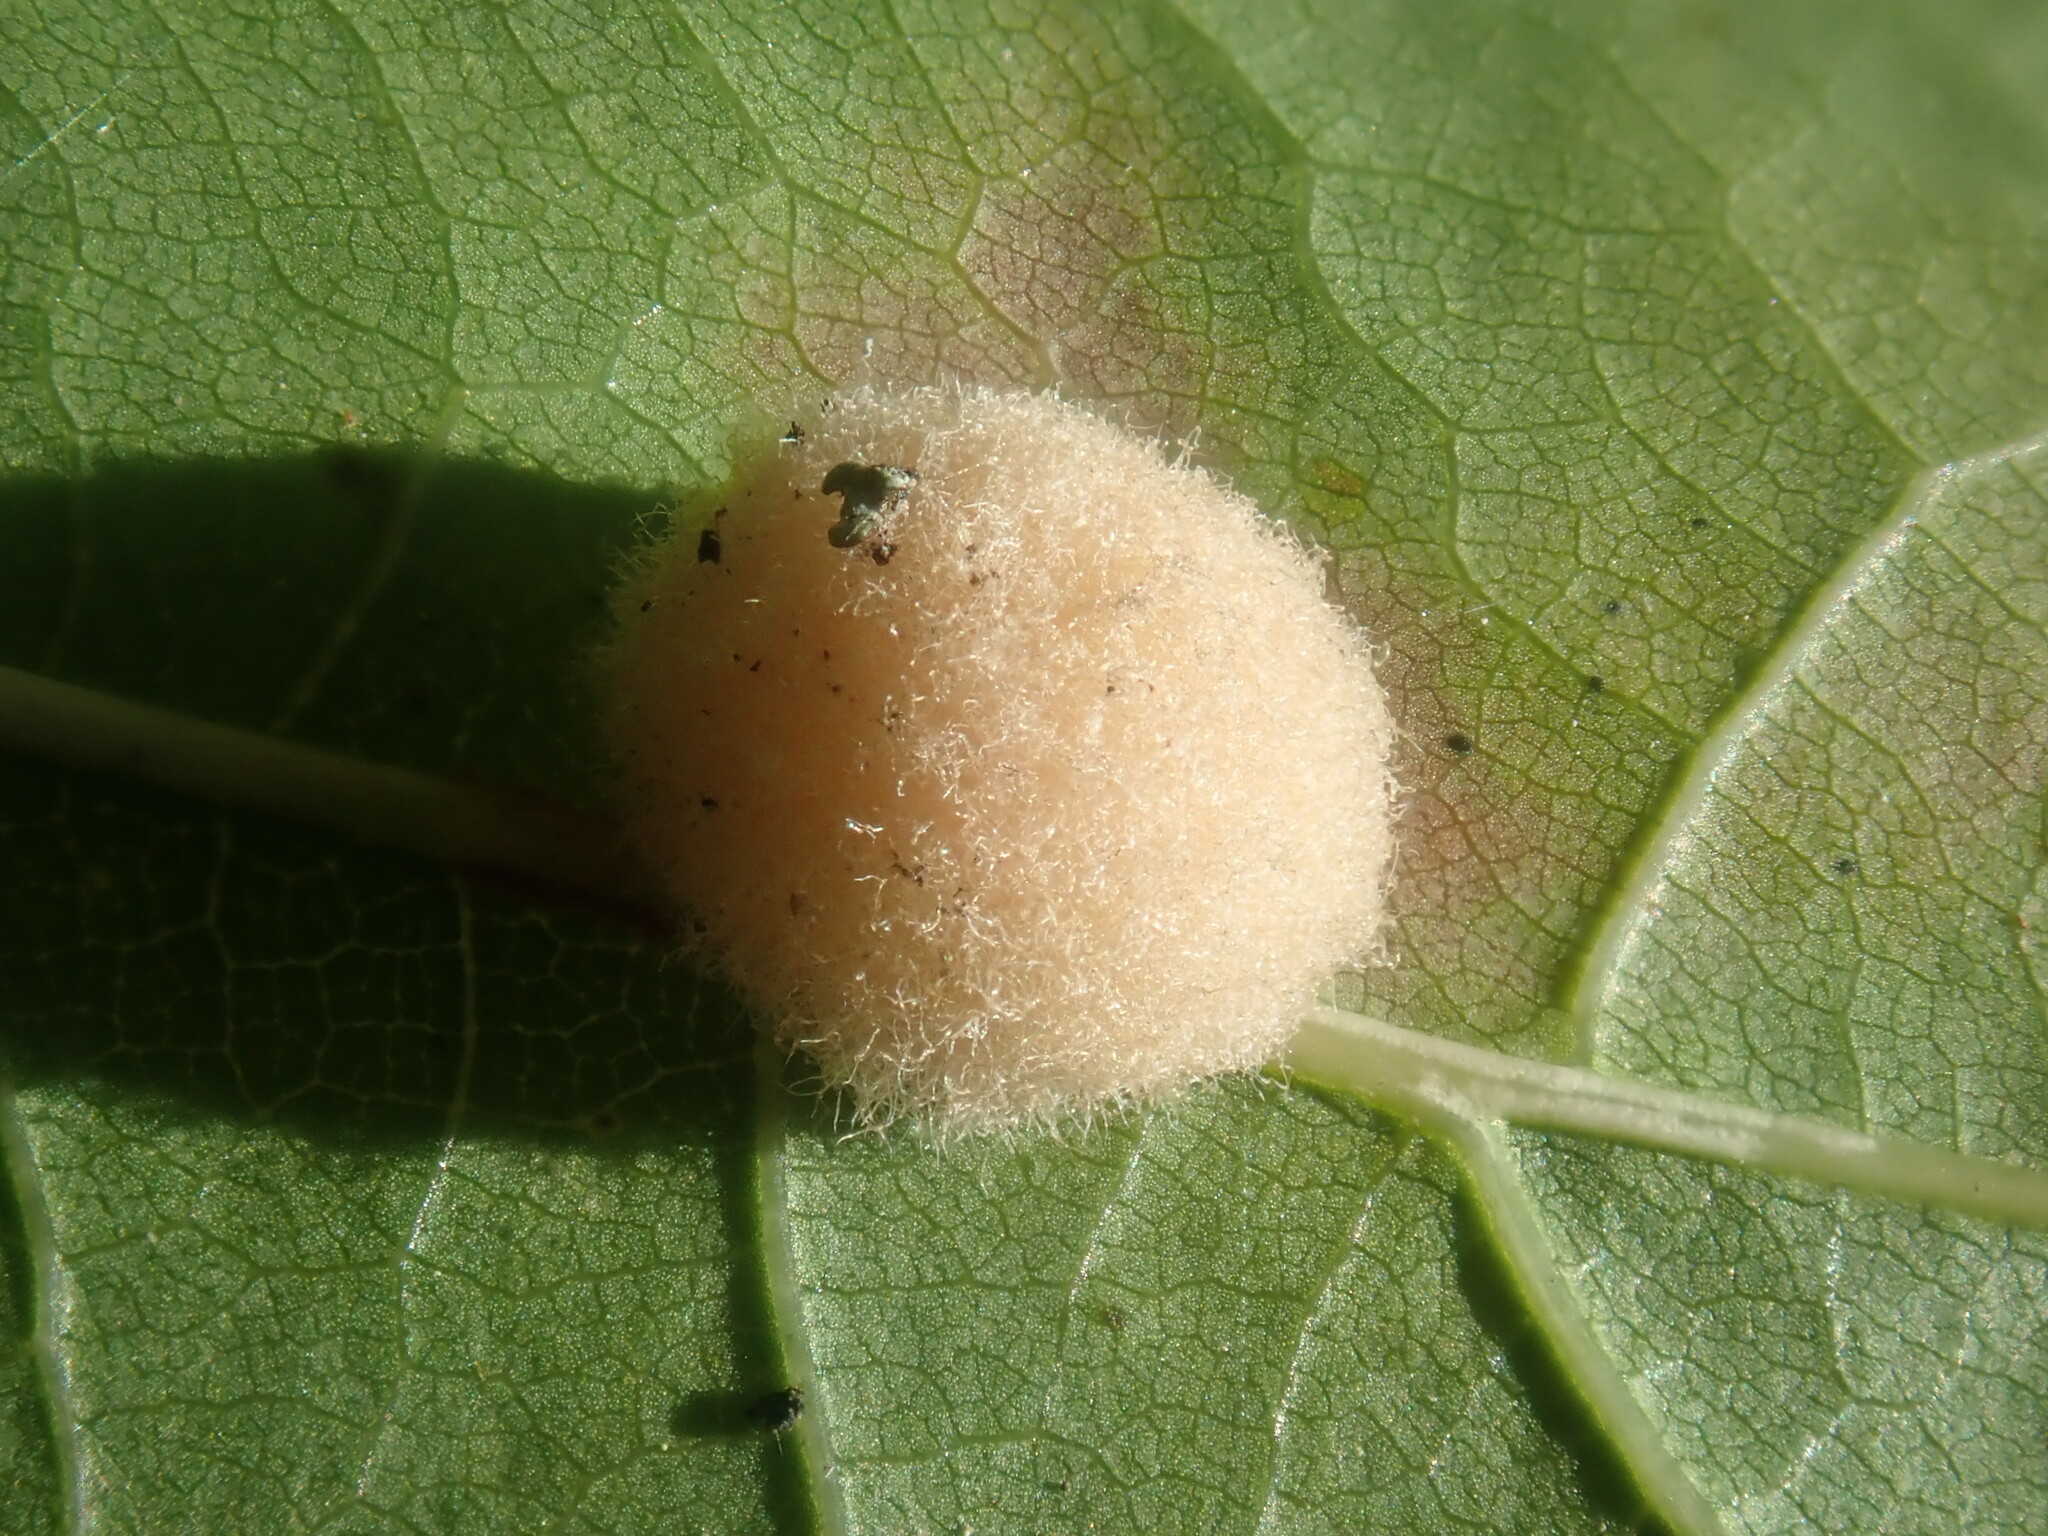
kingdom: Animalia
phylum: Arthropoda
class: Insecta
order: Hymenoptera
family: Cynipidae
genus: Callirhytis
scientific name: Callirhytis
